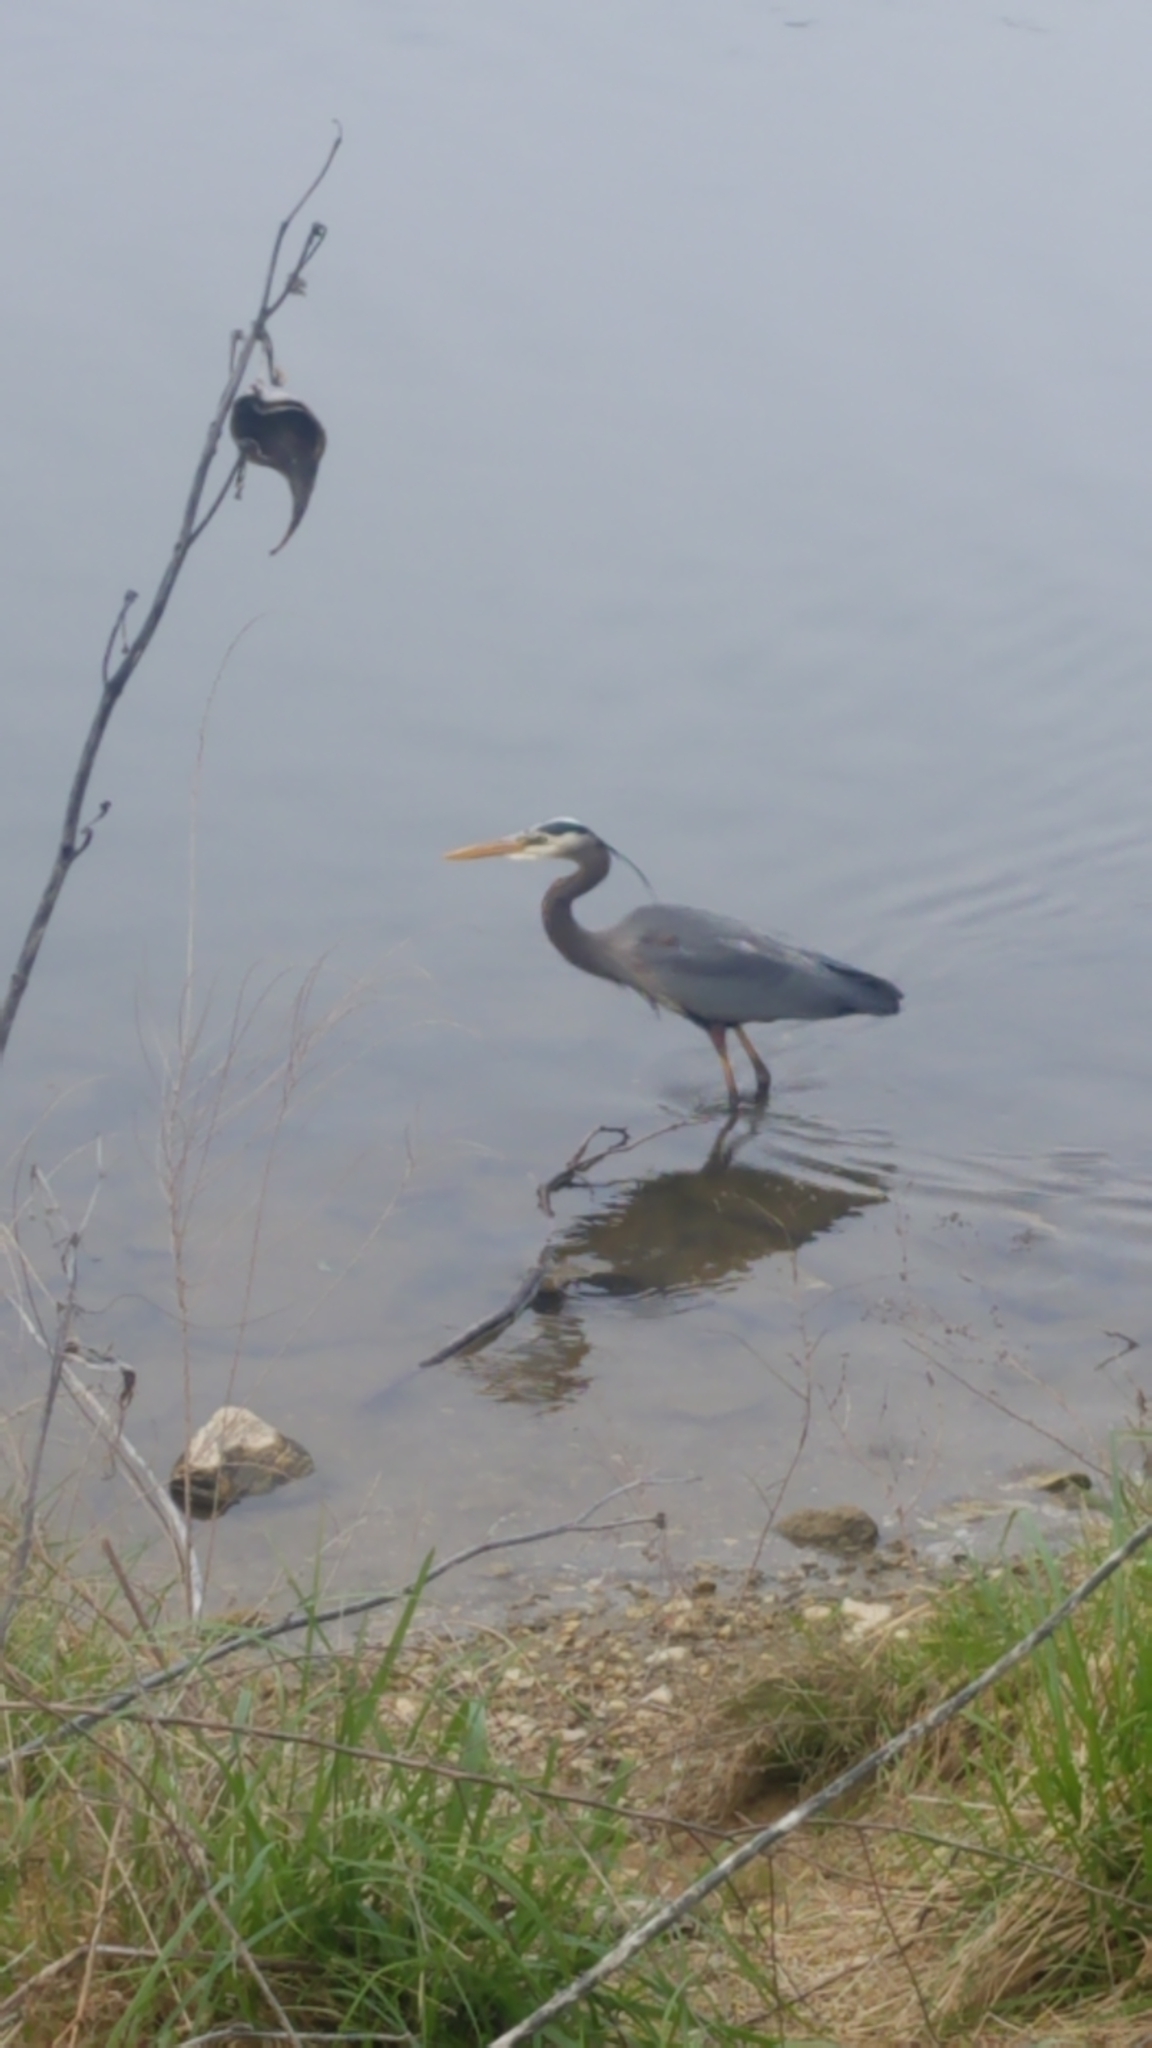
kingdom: Animalia
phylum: Chordata
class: Aves
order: Pelecaniformes
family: Ardeidae
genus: Ardea
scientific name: Ardea herodias
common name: Great blue heron
